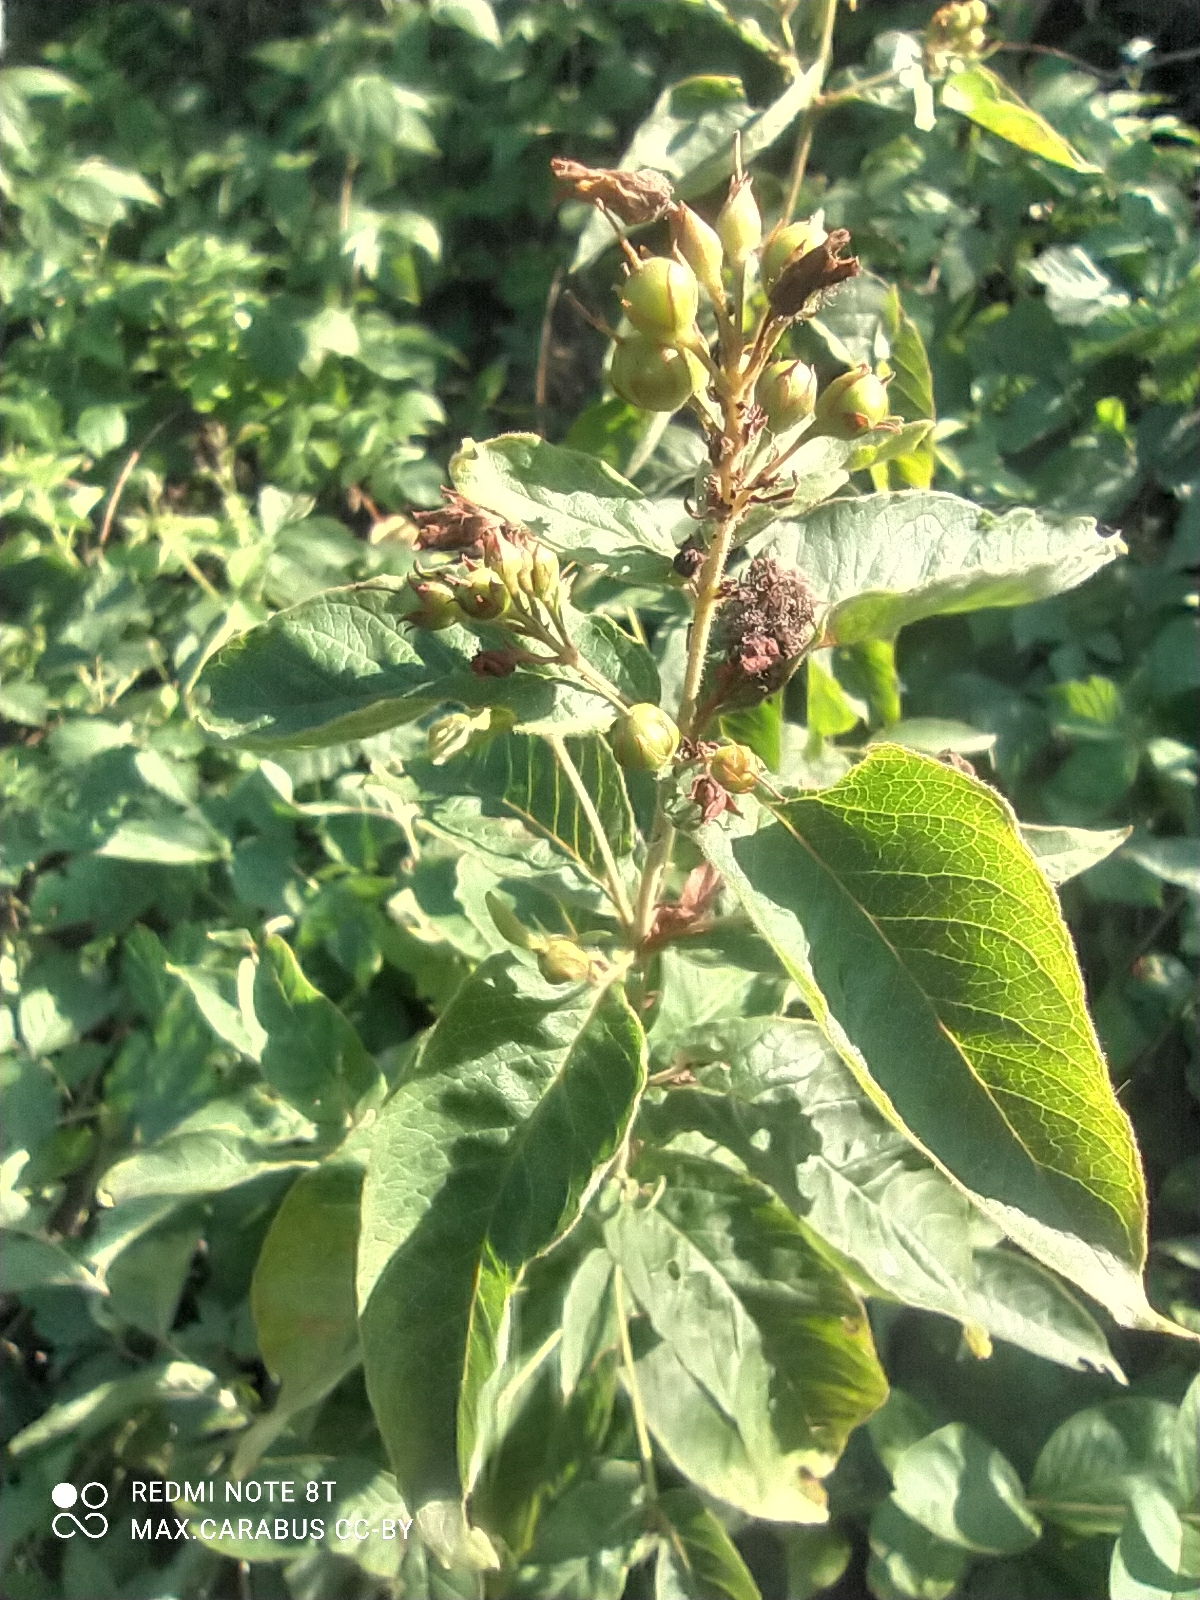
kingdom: Plantae
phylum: Tracheophyta
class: Magnoliopsida
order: Ericales
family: Primulaceae
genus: Lysimachia
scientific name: Lysimachia vulgaris
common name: Yellow loosestrife
